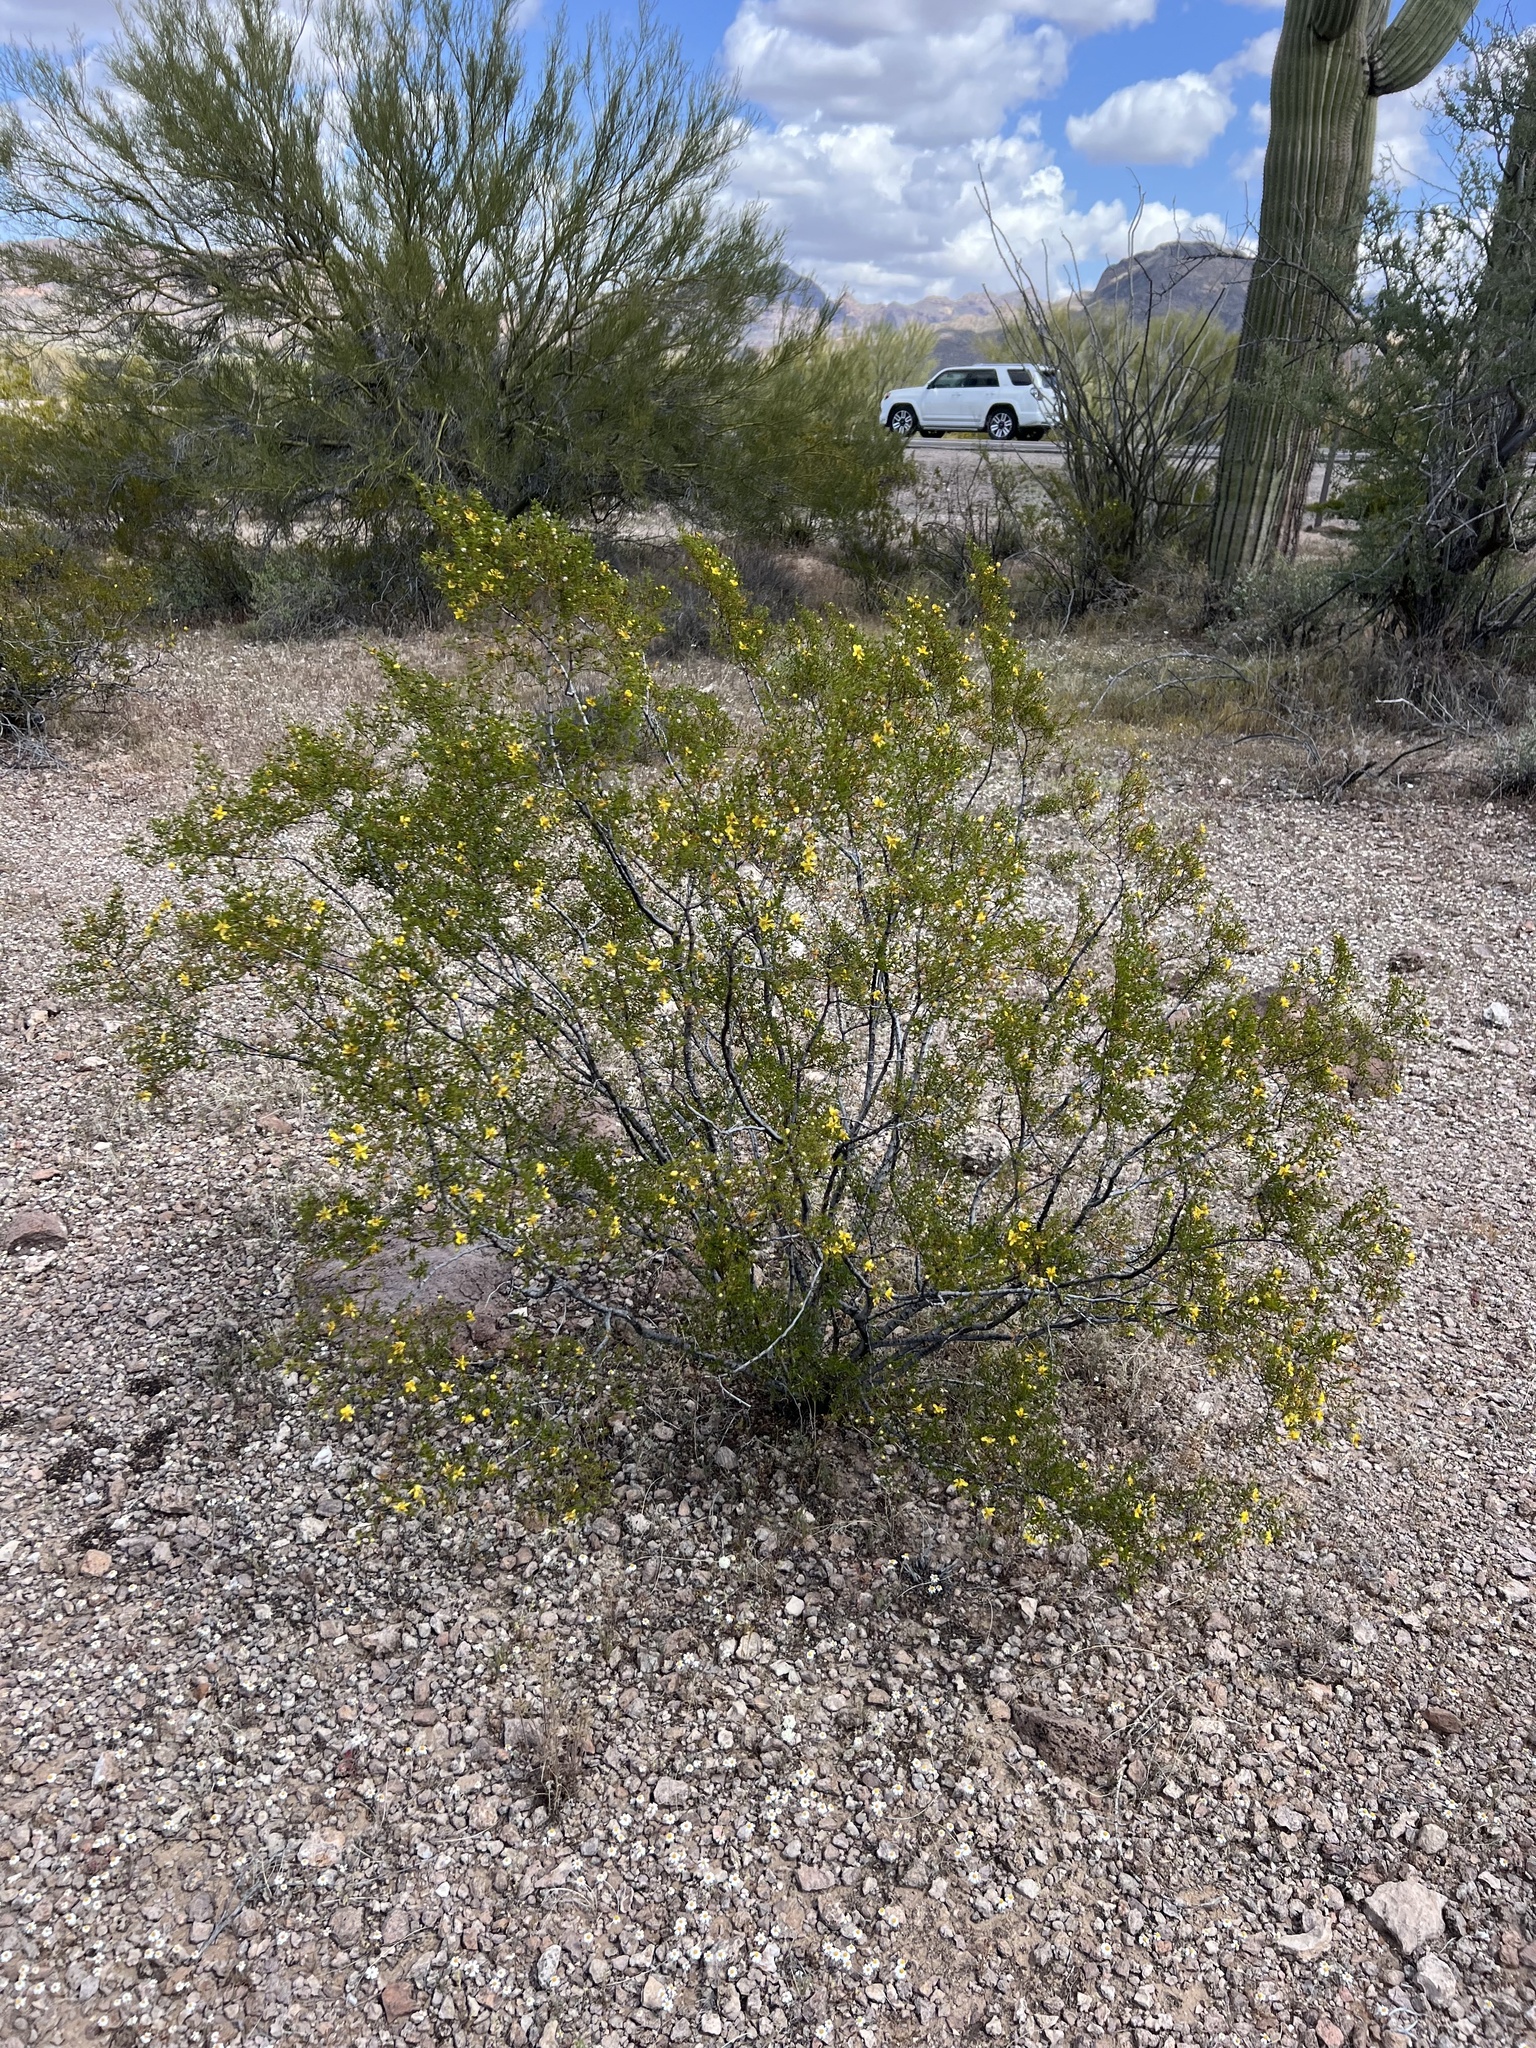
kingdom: Plantae
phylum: Tracheophyta
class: Magnoliopsida
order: Zygophyllales
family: Zygophyllaceae
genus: Larrea
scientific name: Larrea tridentata
